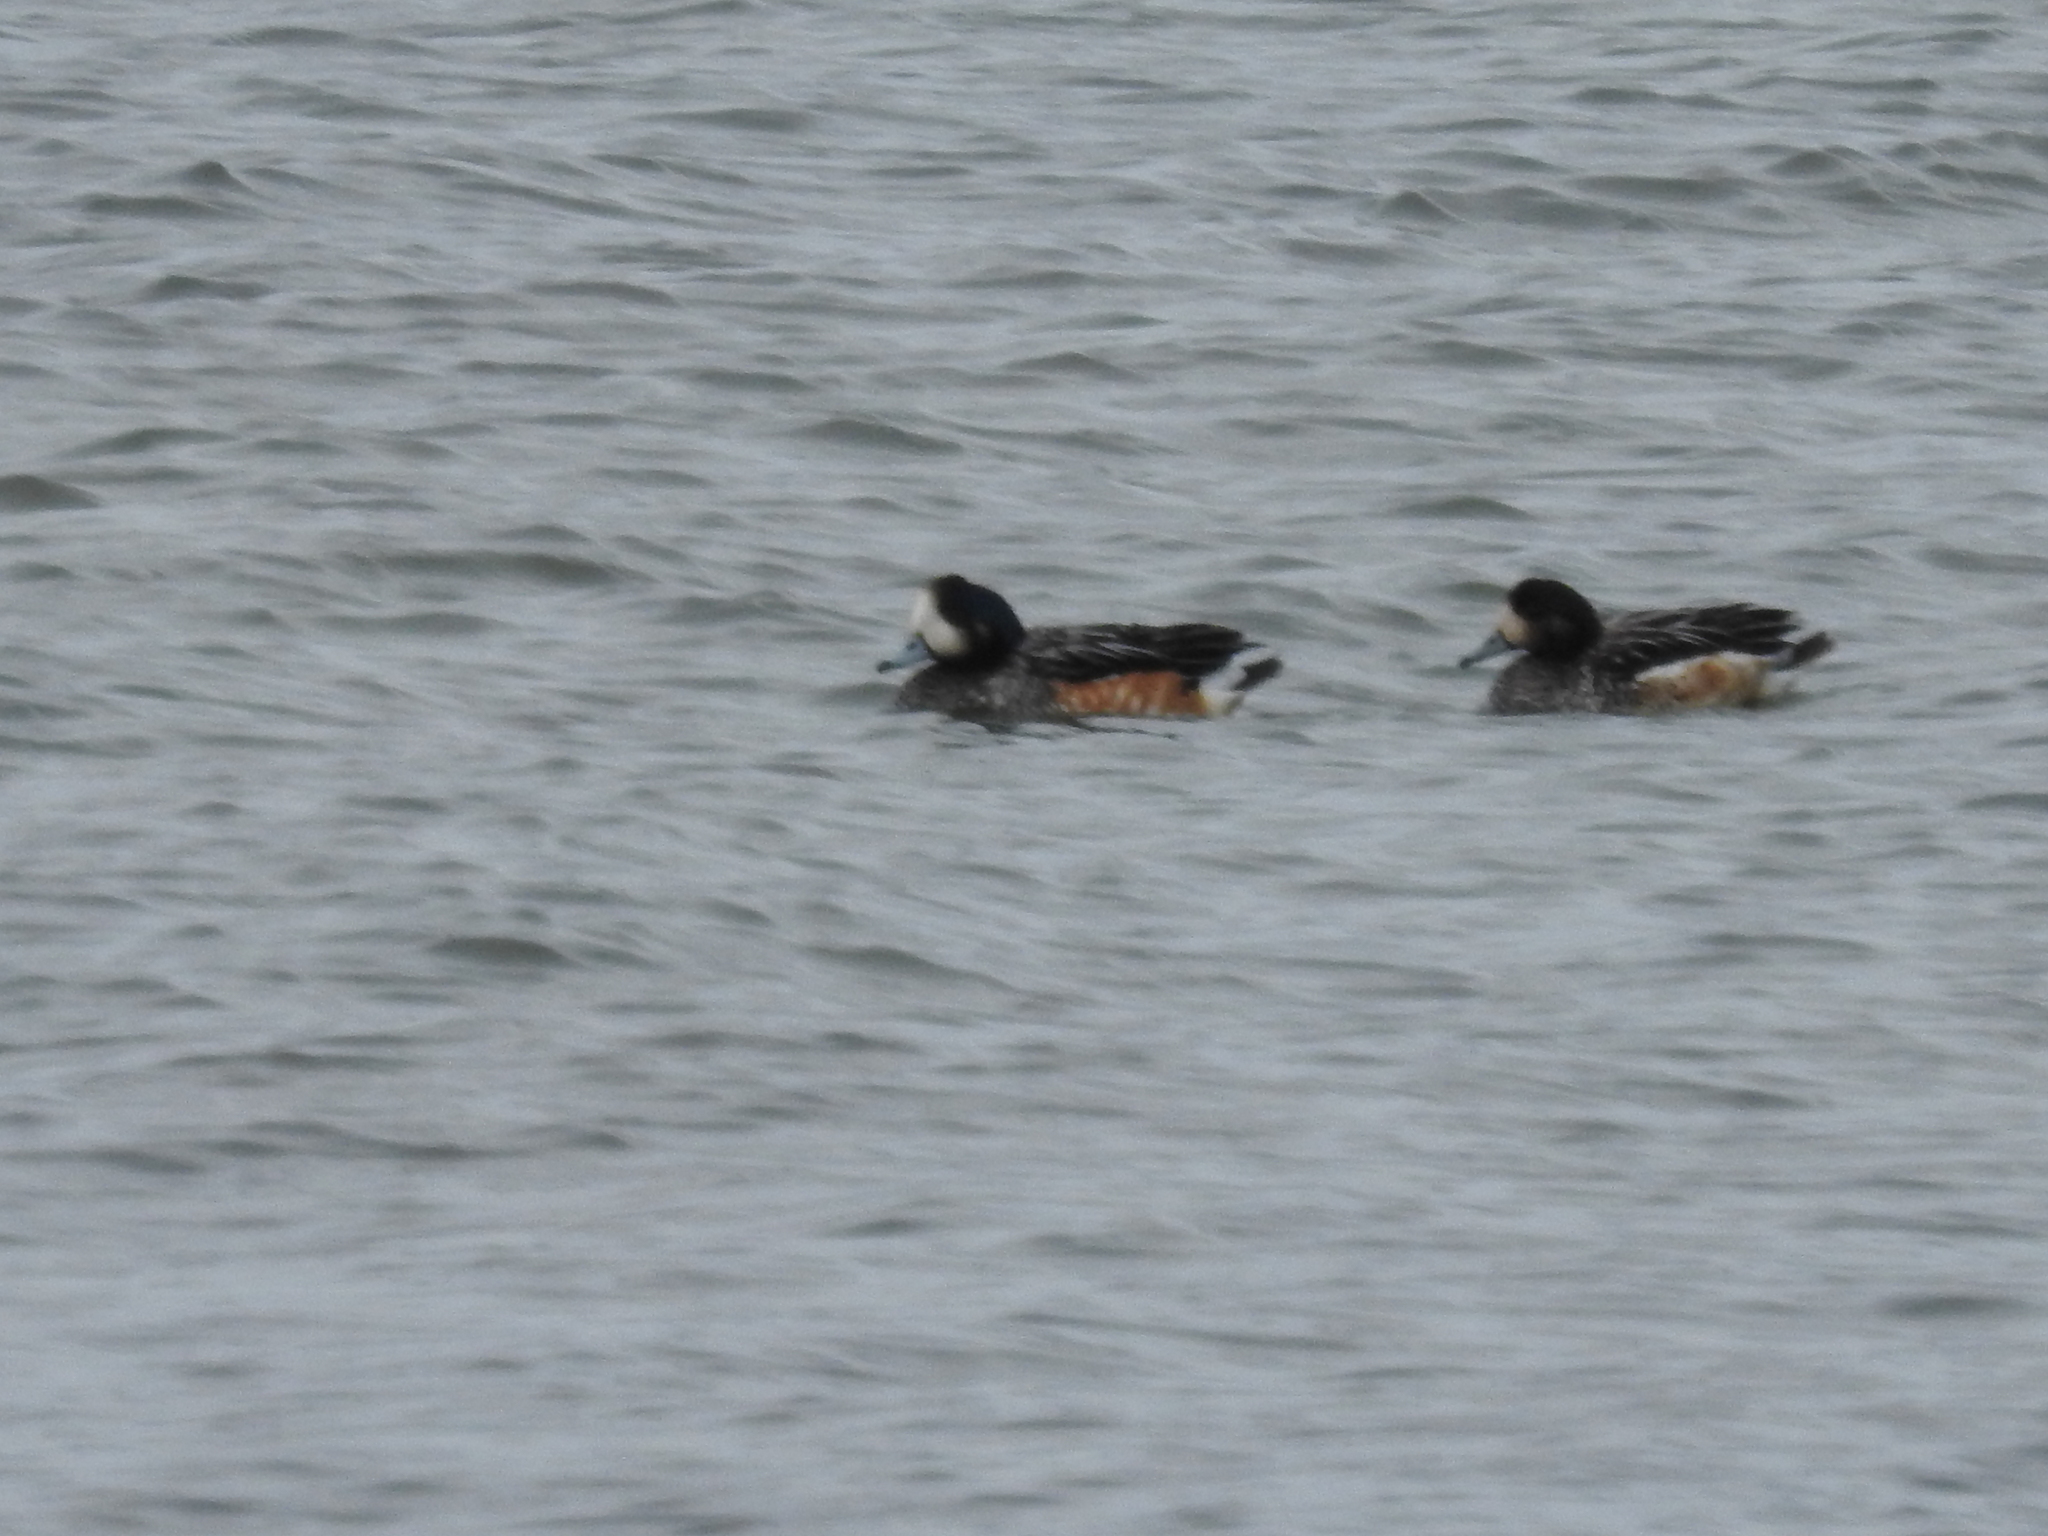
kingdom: Animalia
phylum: Chordata
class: Aves
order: Anseriformes
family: Anatidae
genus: Mareca
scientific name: Mareca sibilatrix
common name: Chiloe wigeon
